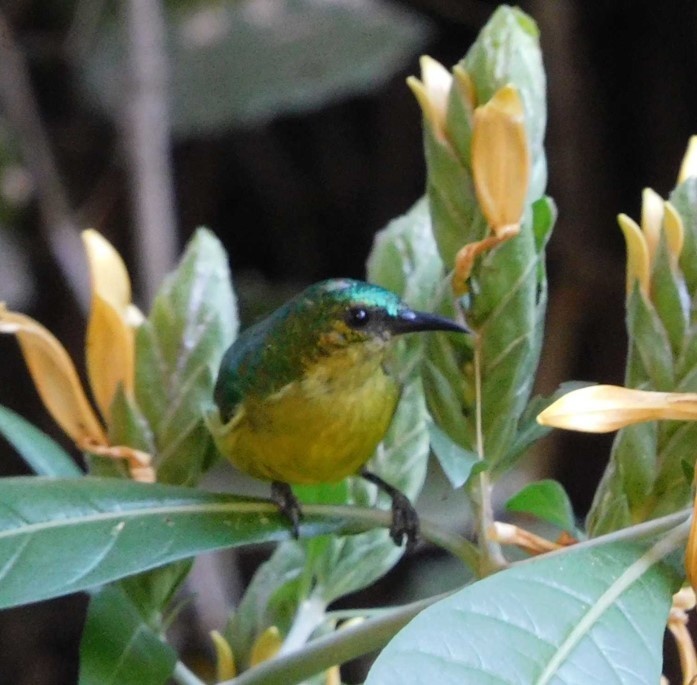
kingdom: Animalia
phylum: Chordata
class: Aves
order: Passeriformes
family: Nectariniidae
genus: Hedydipna
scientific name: Hedydipna collaris
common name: Collared sunbird
